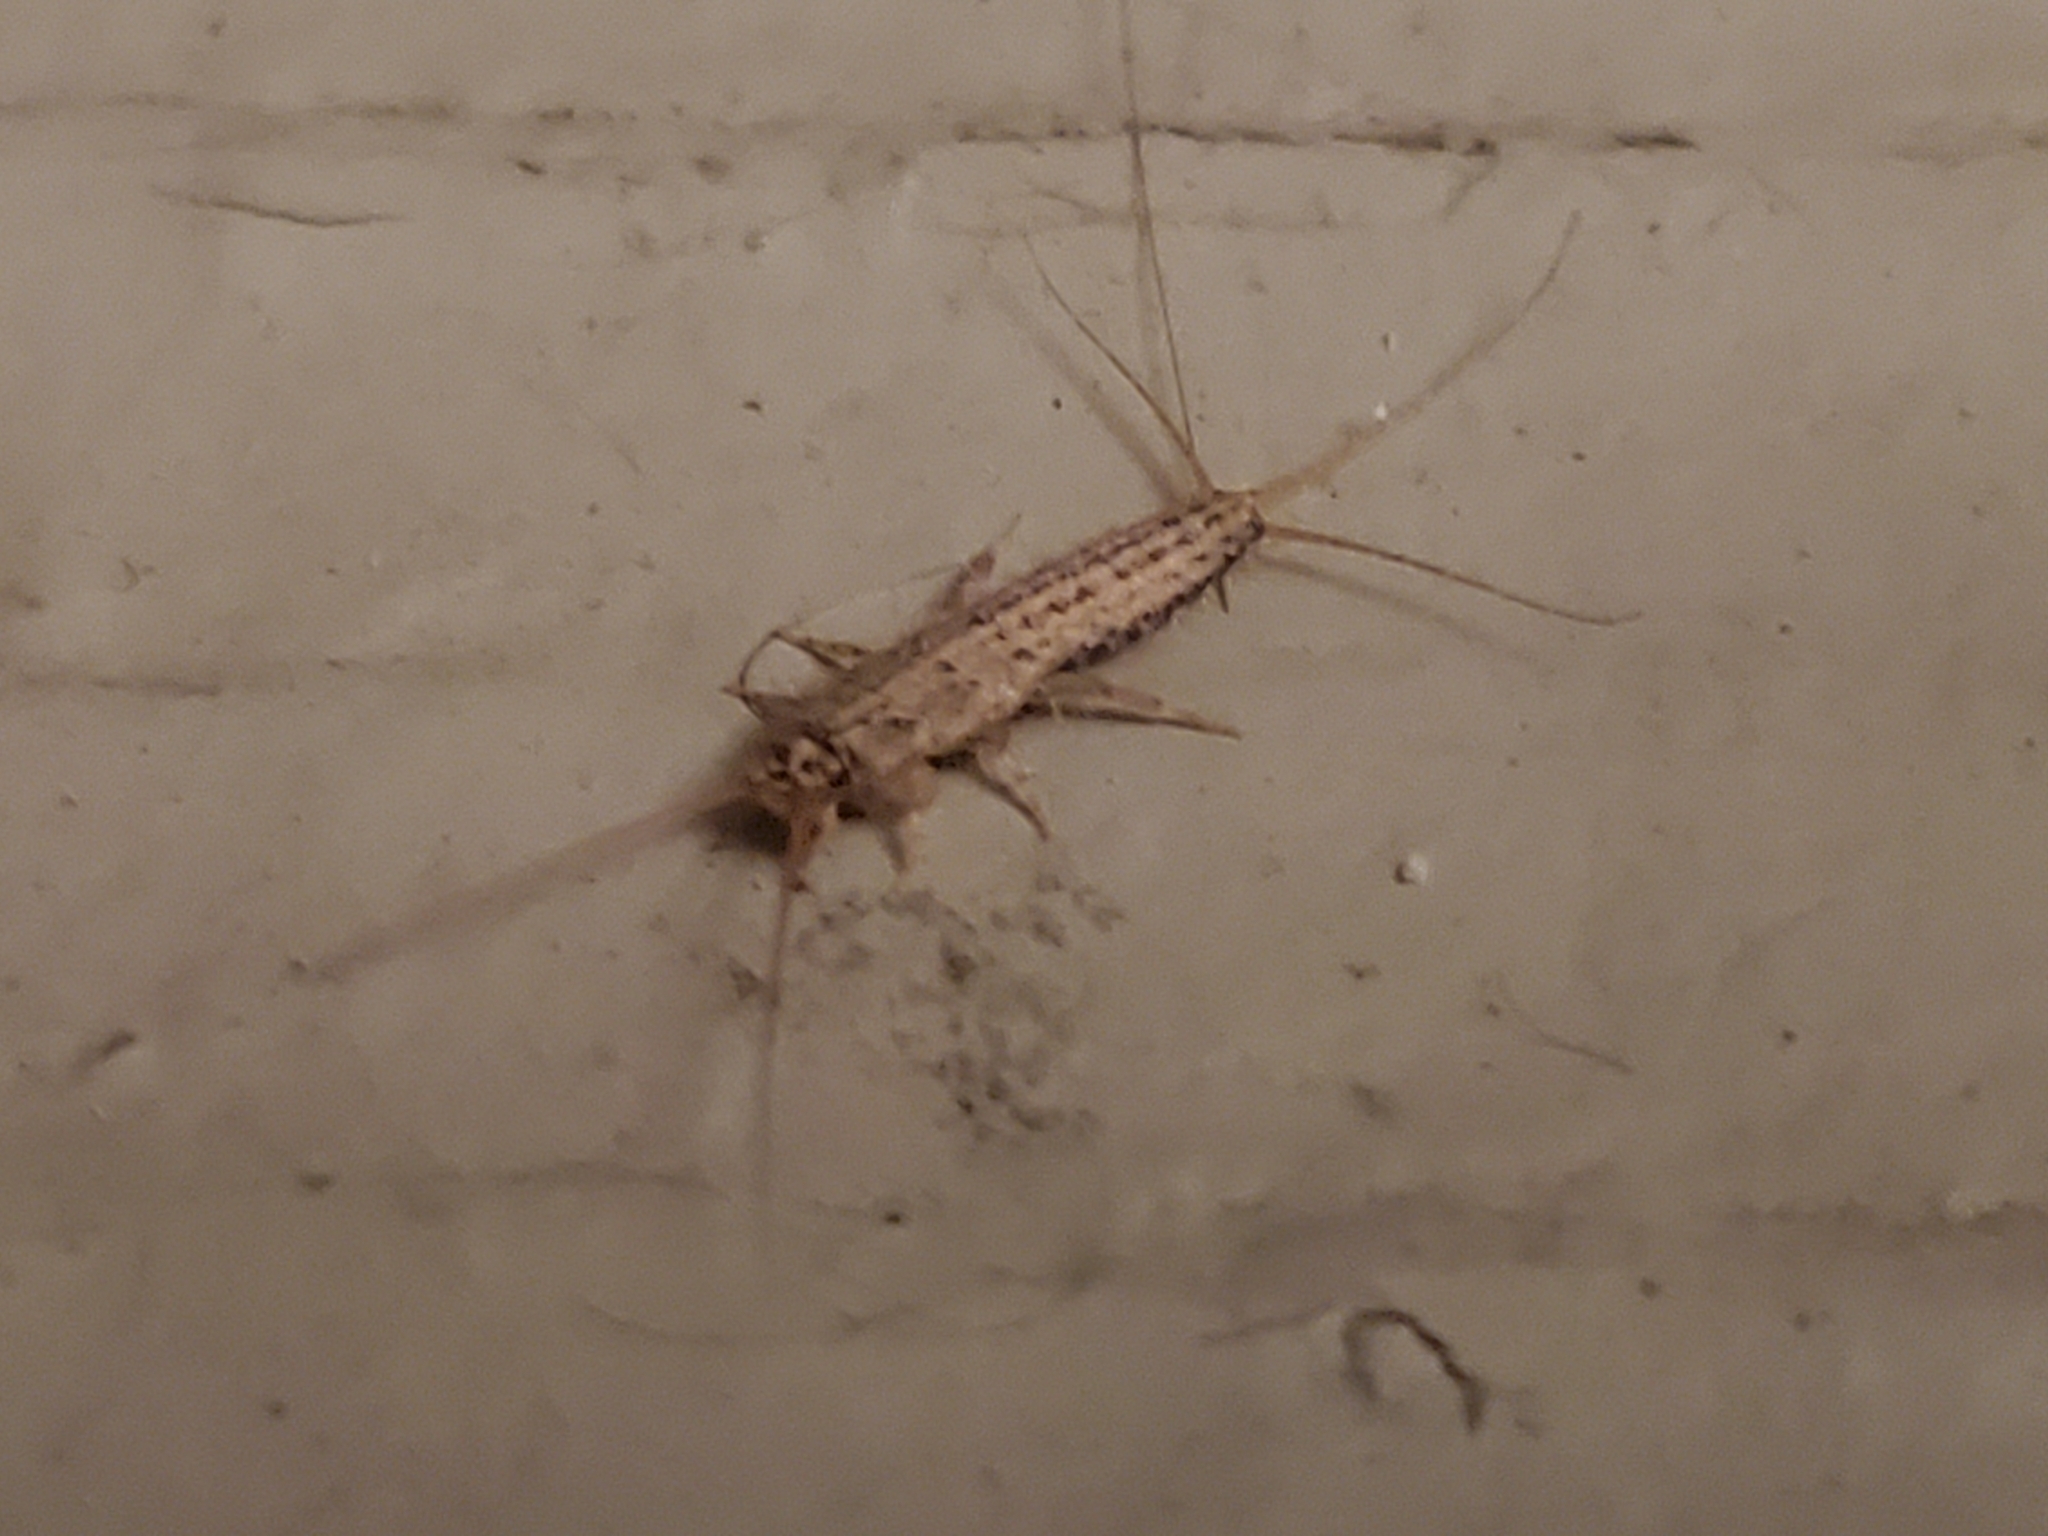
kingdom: Animalia
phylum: Arthropoda
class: Insecta
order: Zygentoma
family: Lepismatidae
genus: Ctenolepisma
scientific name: Ctenolepisma lineata
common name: Four-lined silverfish
